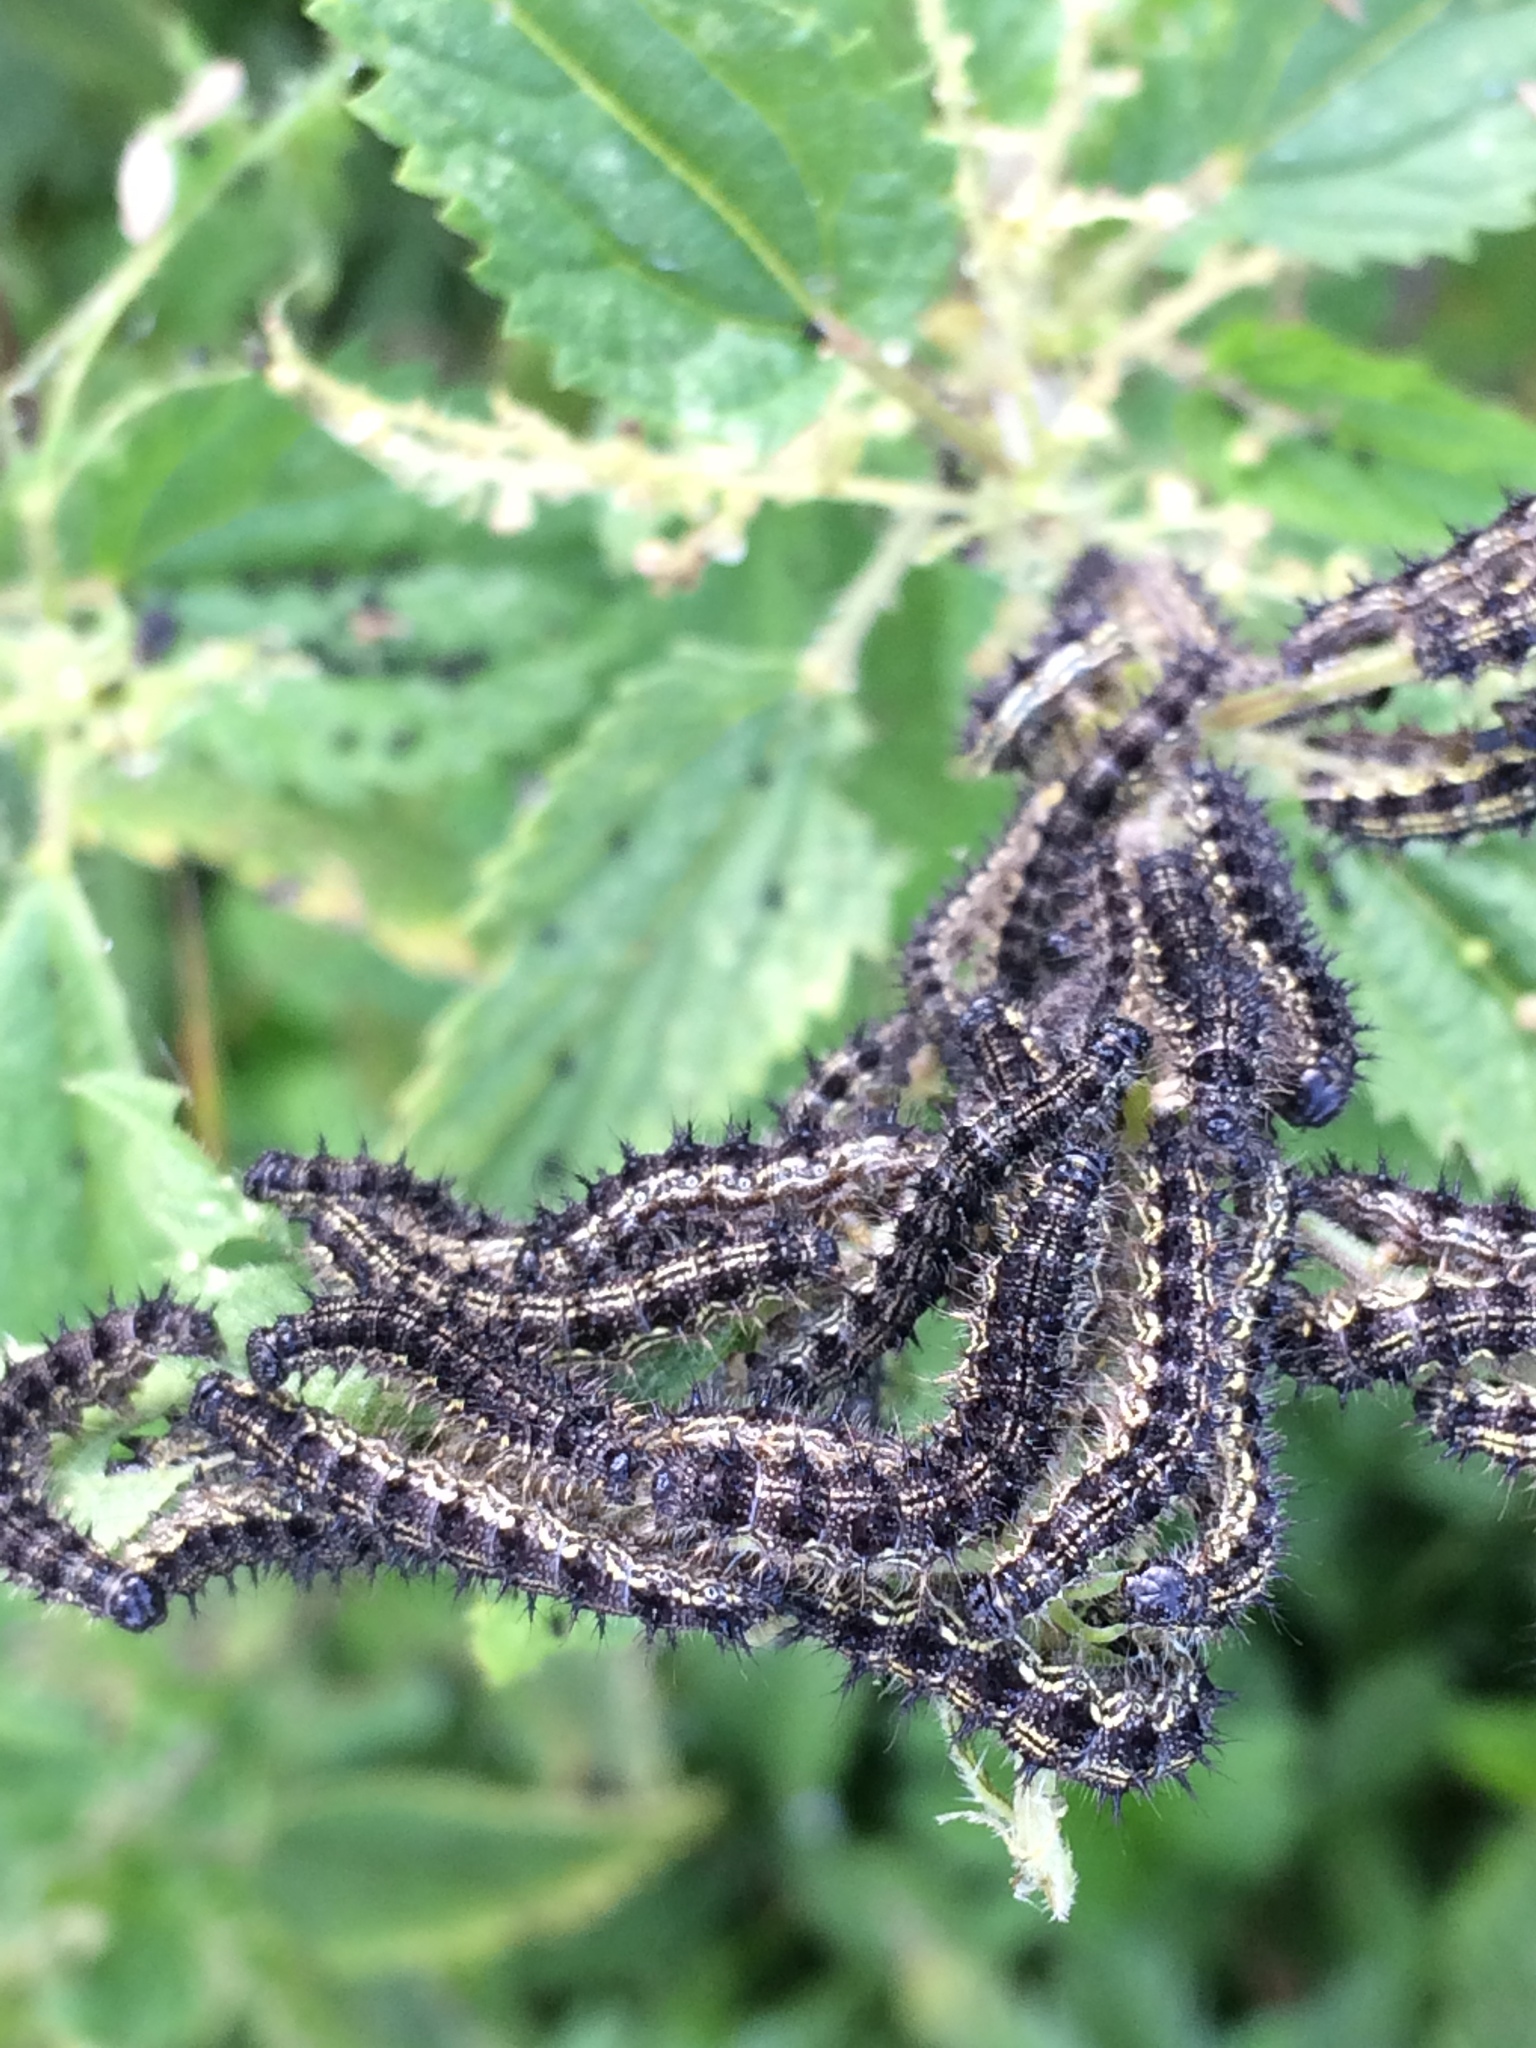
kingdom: Animalia
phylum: Arthropoda
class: Insecta
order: Lepidoptera
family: Nymphalidae
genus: Aglais
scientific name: Aglais urticae
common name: Small tortoiseshell
